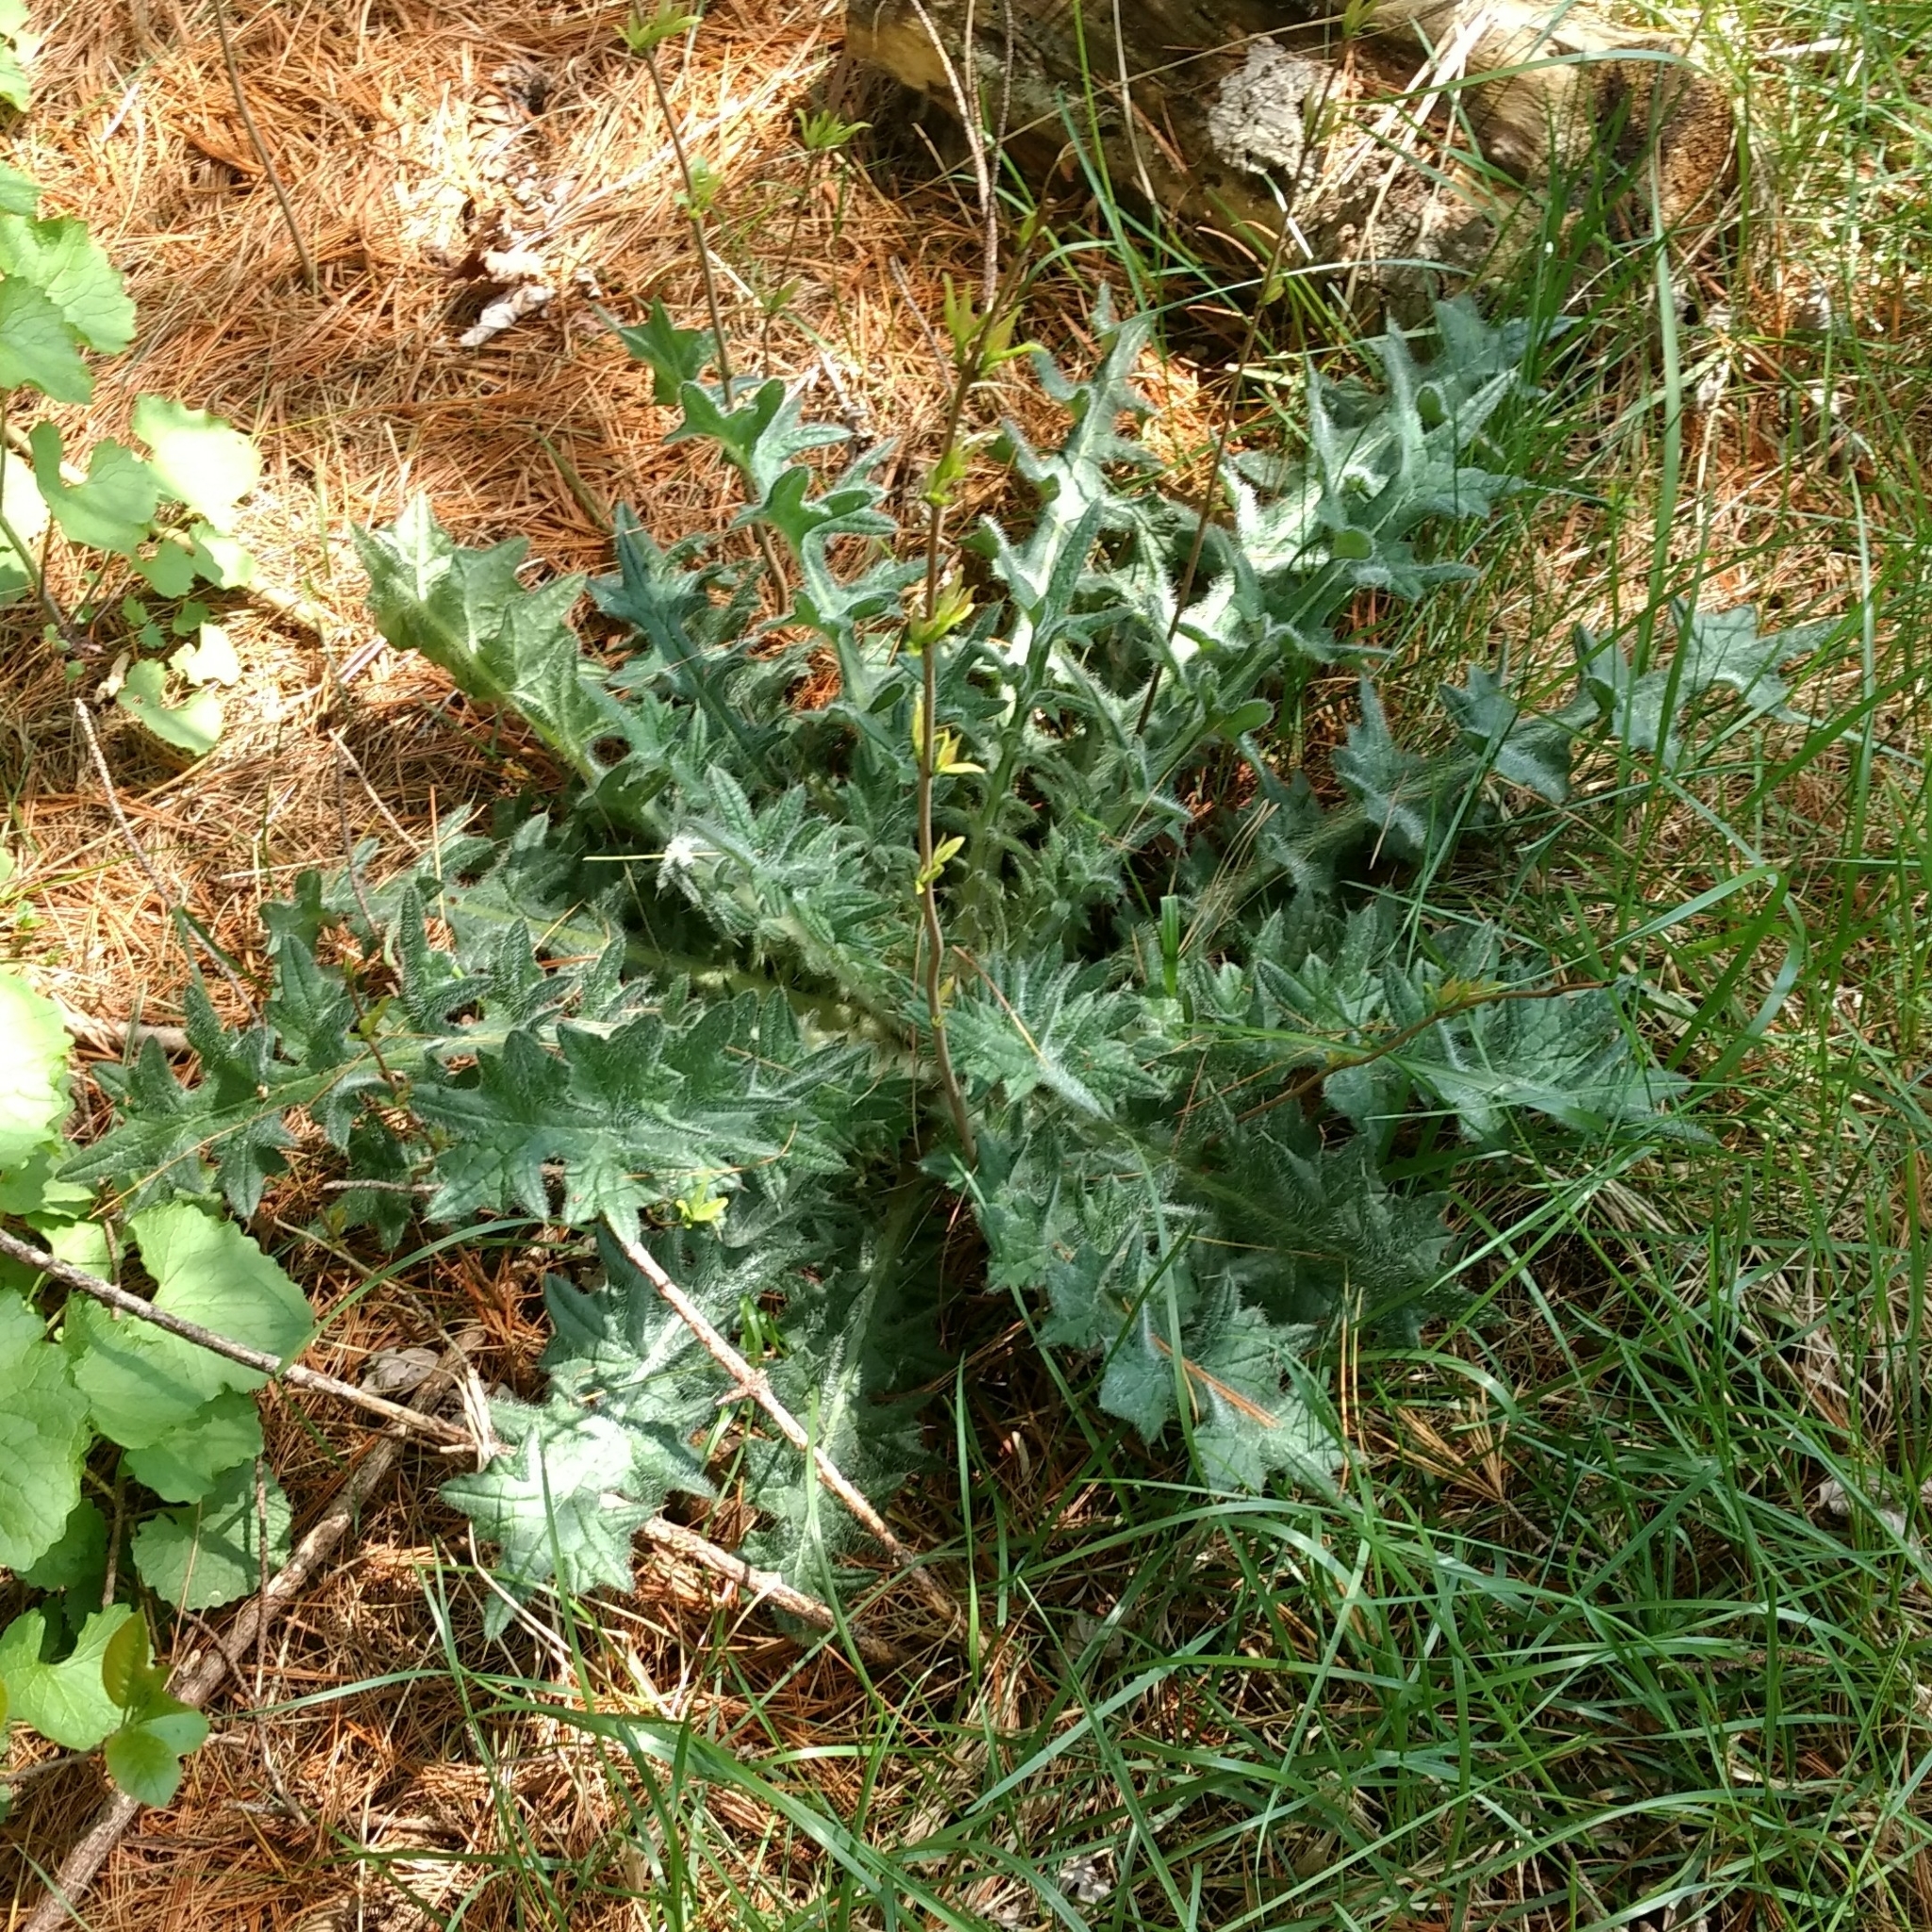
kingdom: Plantae
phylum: Tracheophyta
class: Magnoliopsida
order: Asterales
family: Asteraceae
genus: Cirsium
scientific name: Cirsium vulgare
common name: Bull thistle
